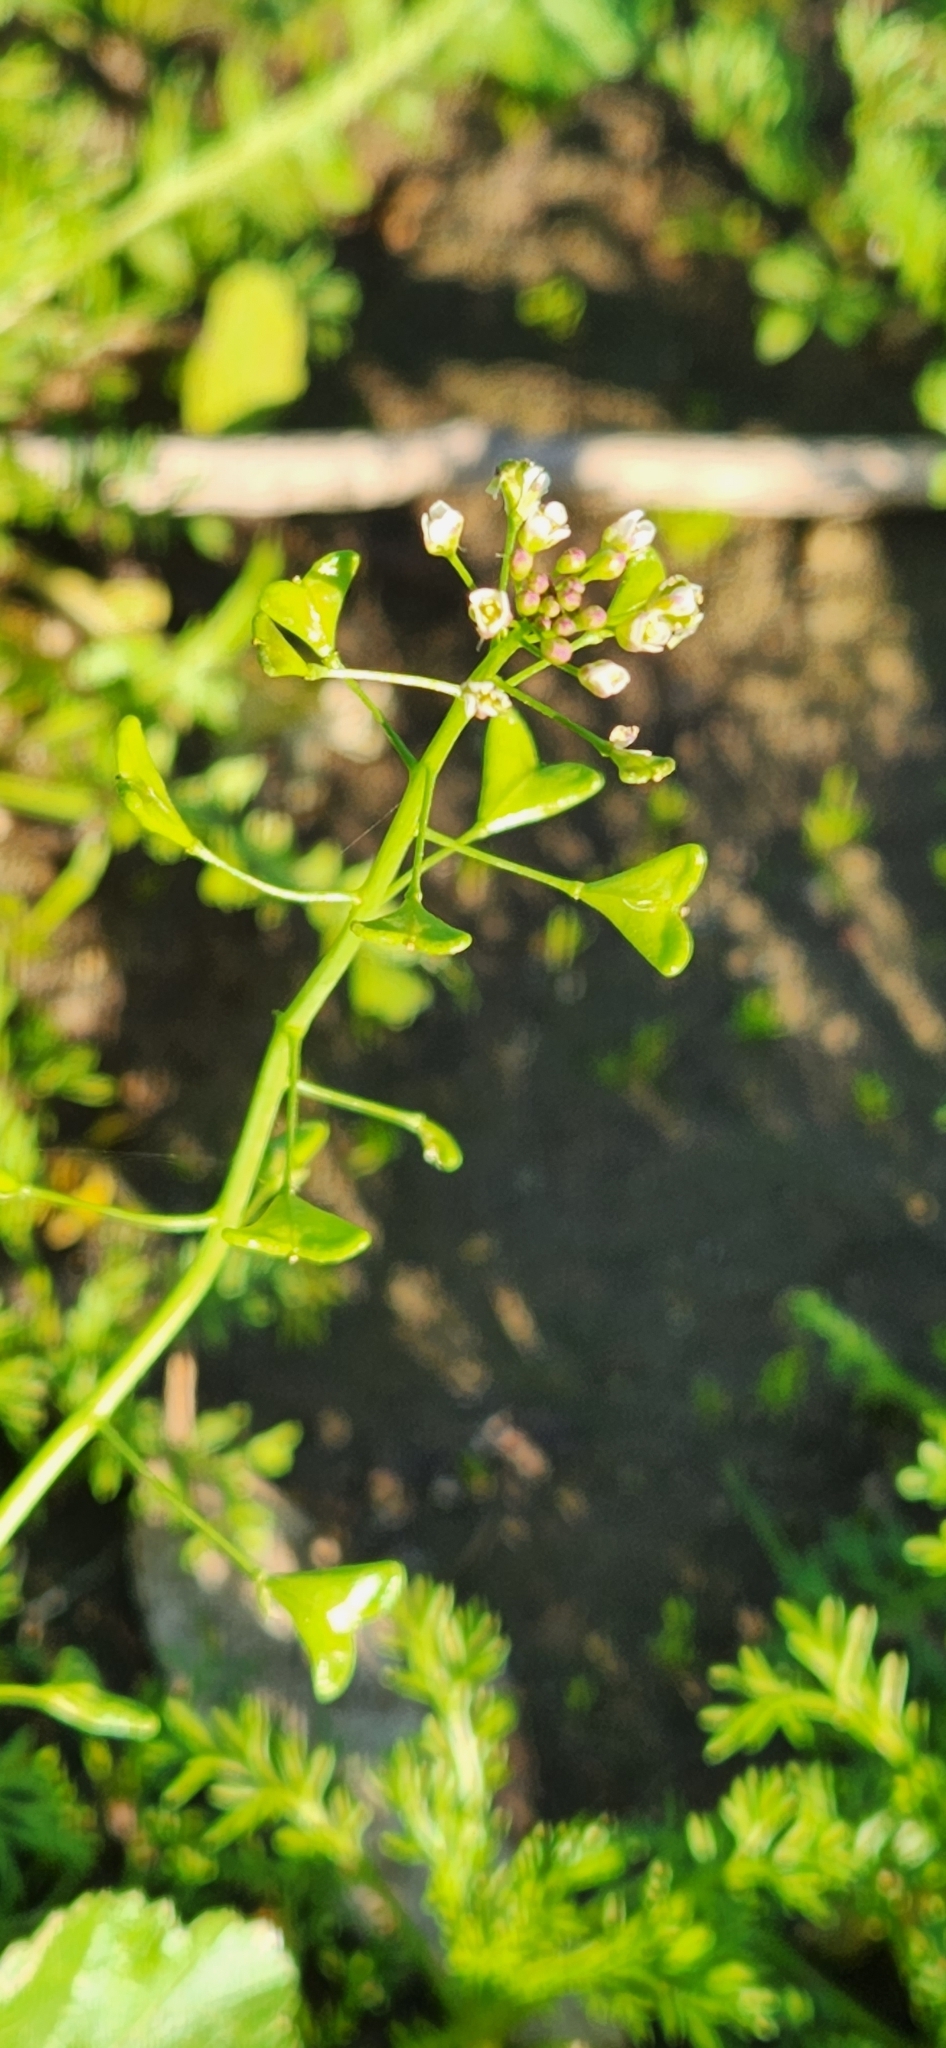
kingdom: Plantae
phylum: Tracheophyta
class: Magnoliopsida
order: Brassicales
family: Brassicaceae
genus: Capsella
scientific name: Capsella bursa-pastoris
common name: Shepherd's purse
